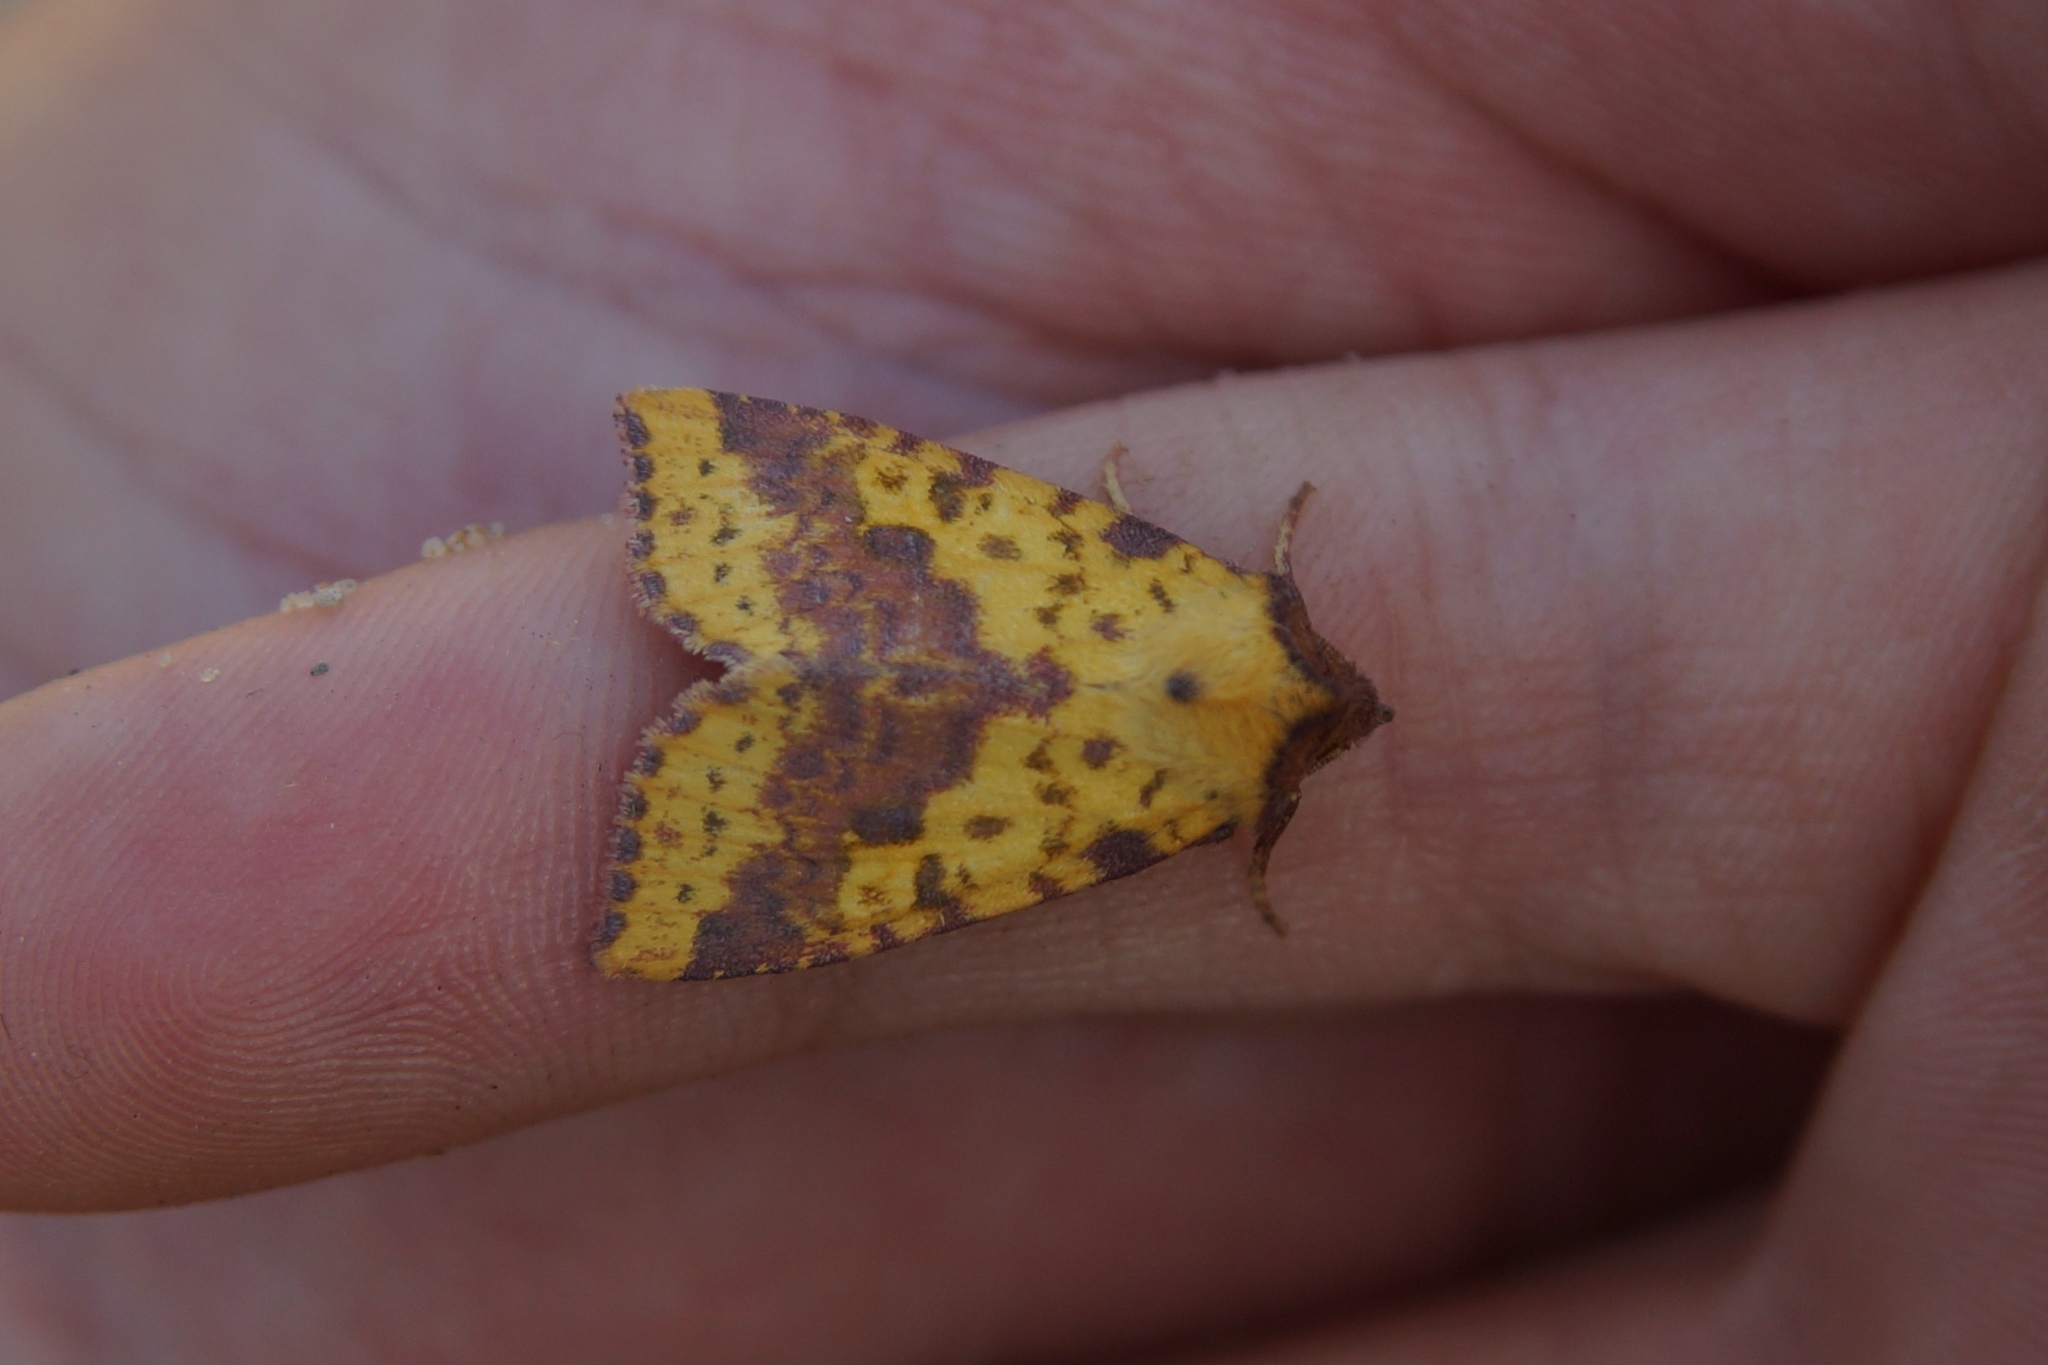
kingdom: Animalia
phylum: Arthropoda
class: Insecta
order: Lepidoptera
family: Noctuidae
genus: Xanthia
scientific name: Xanthia togata
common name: Pink-barred sallow
